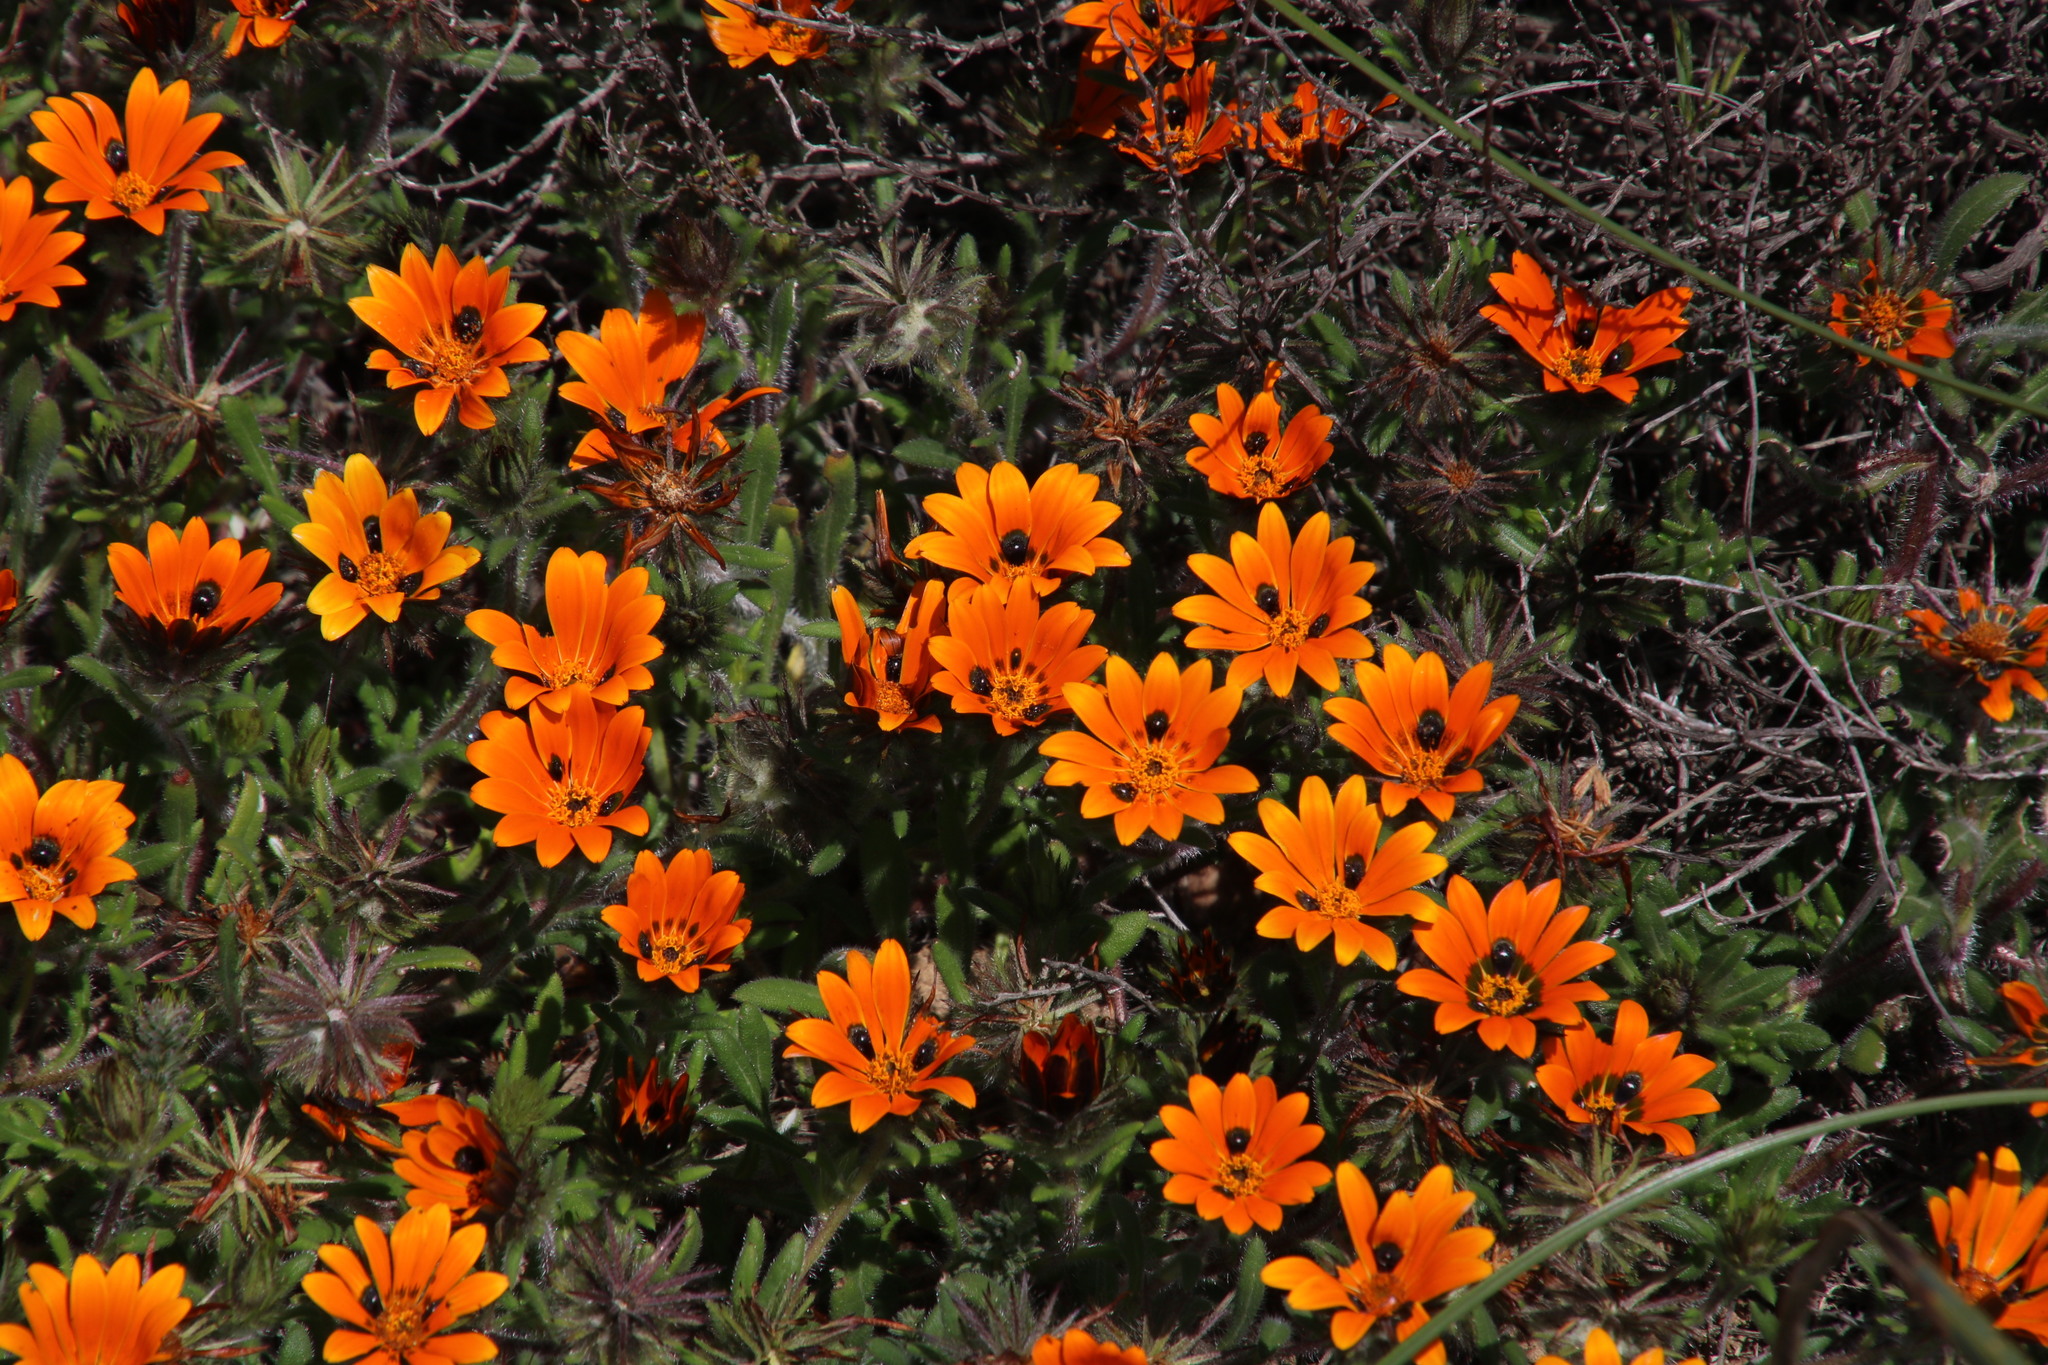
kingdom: Plantae
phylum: Tracheophyta
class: Magnoliopsida
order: Asterales
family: Asteraceae
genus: Gorteria
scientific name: Gorteria diffusa
